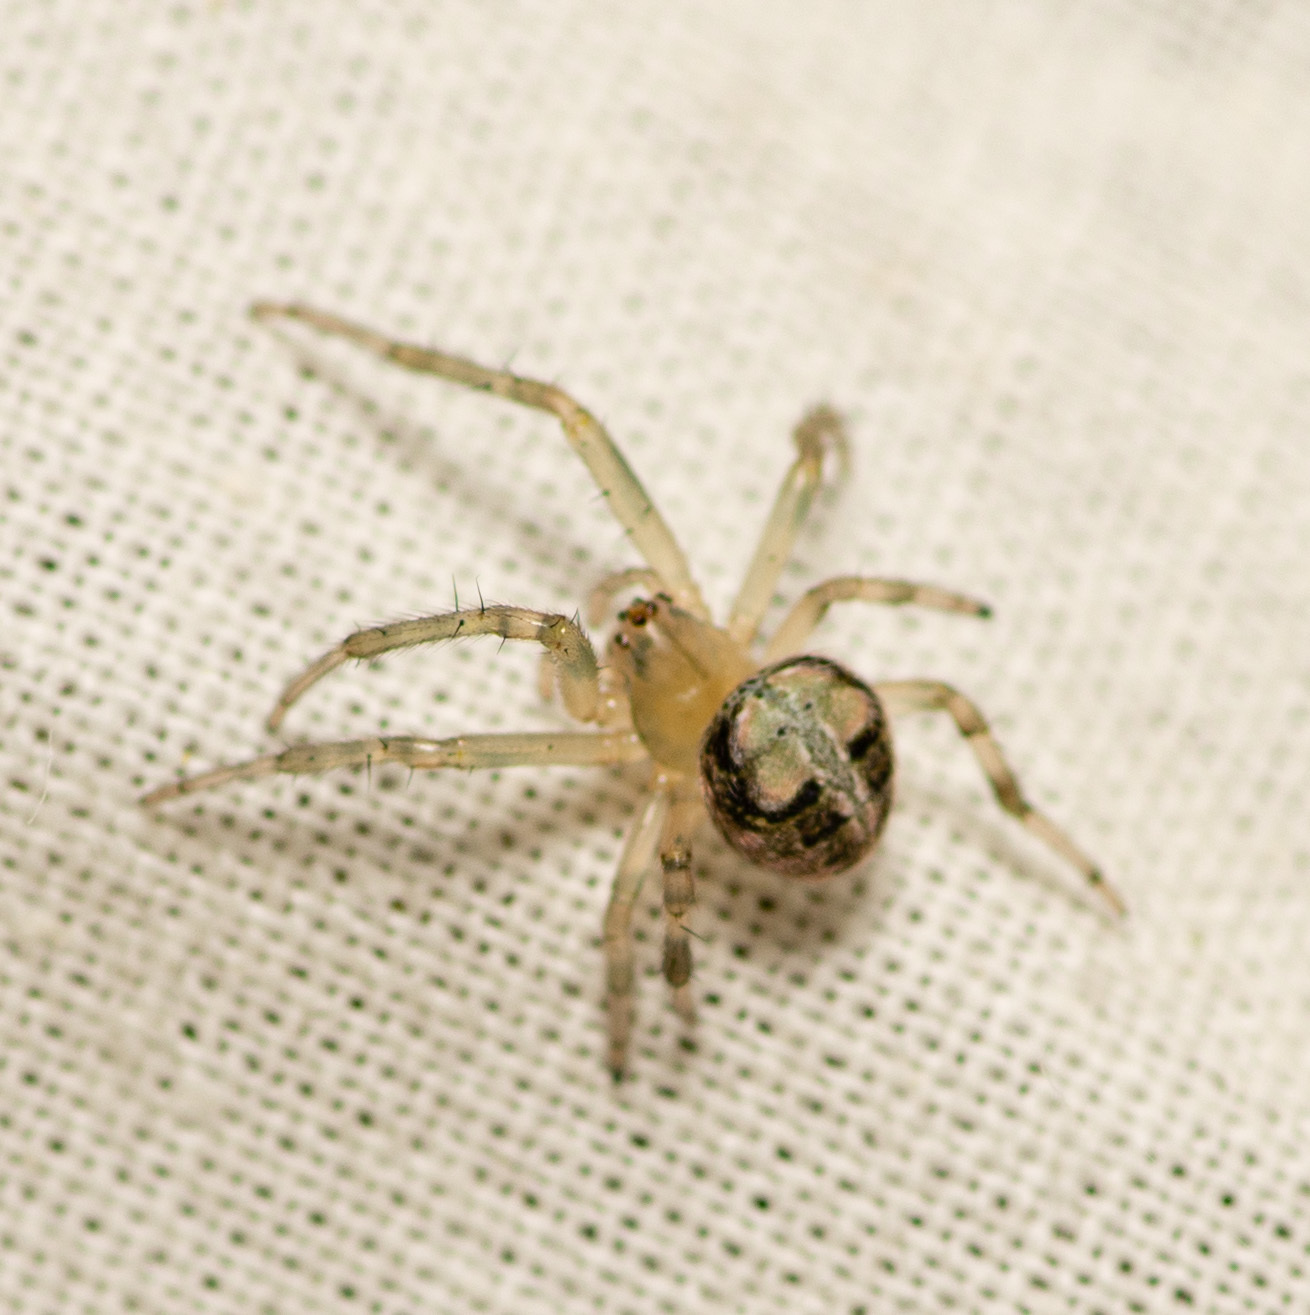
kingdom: Animalia
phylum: Arthropoda
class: Arachnida
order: Araneae
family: Araneidae
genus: Araneus
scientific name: Araneus pegnia
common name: Orb weavers
